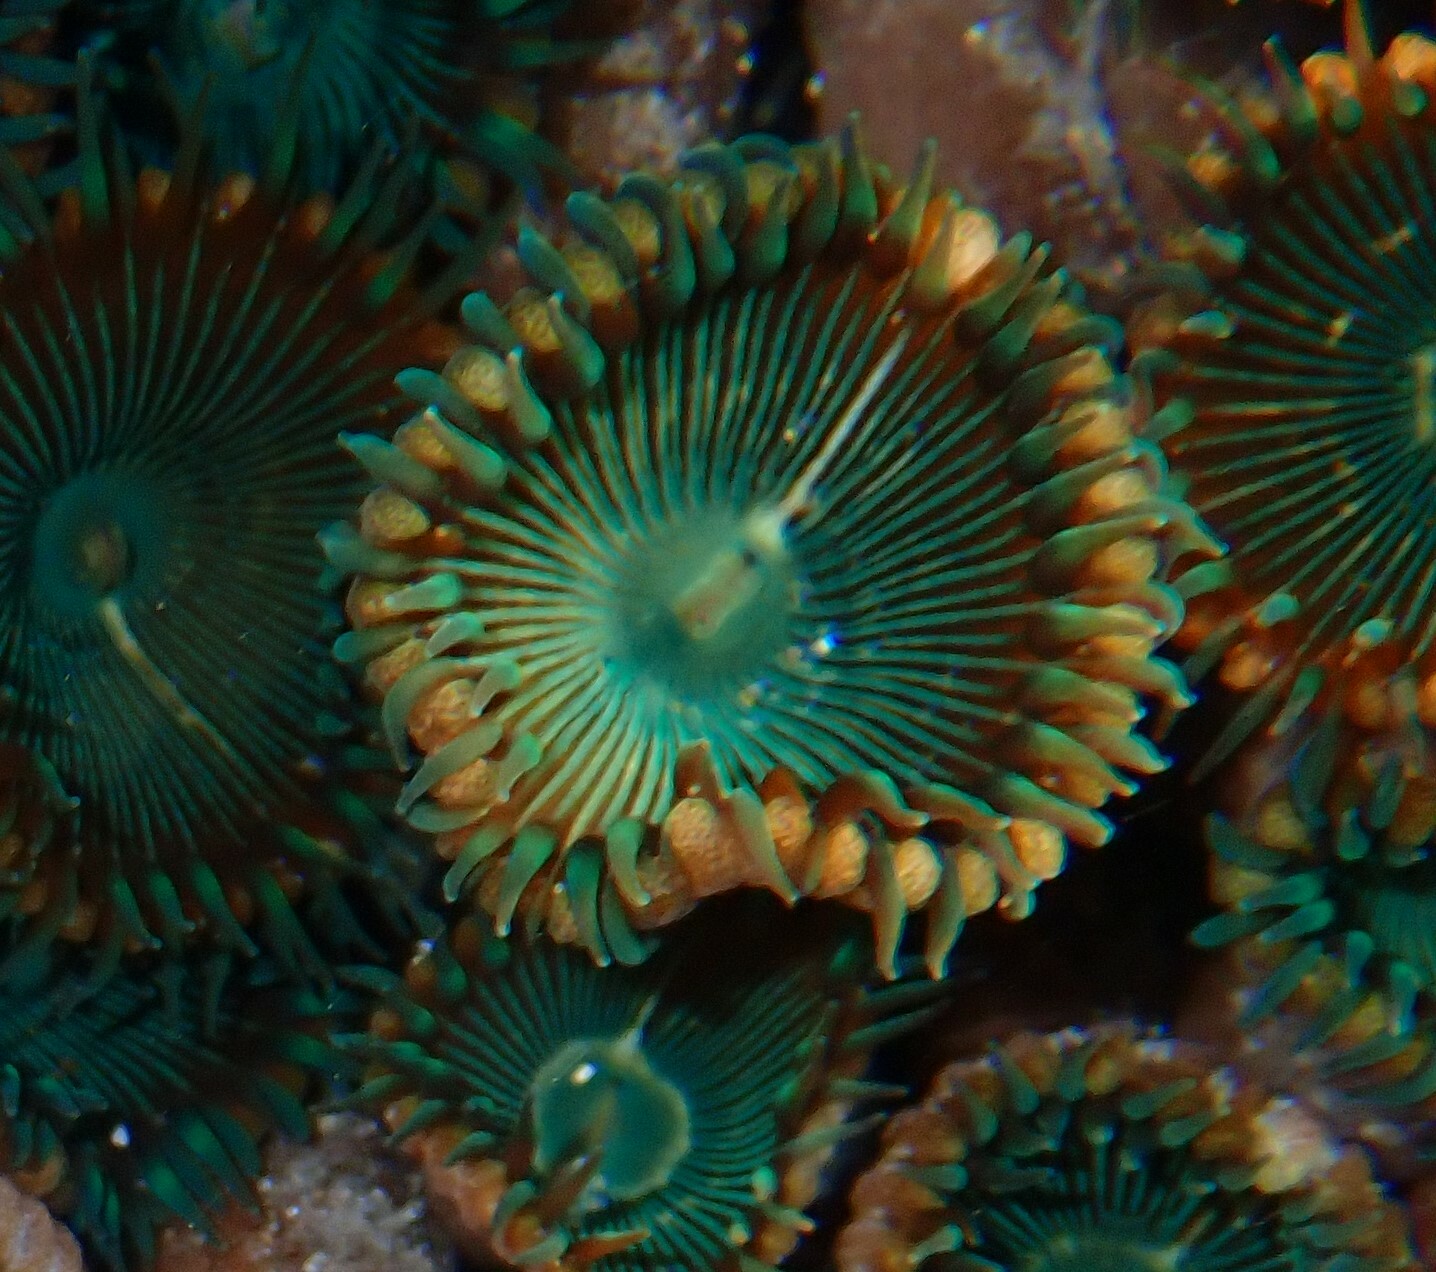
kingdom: Animalia
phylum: Cnidaria
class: Anthozoa
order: Zoantharia
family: Sphenopidae
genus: Palythoa
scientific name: Palythoa mutuki
